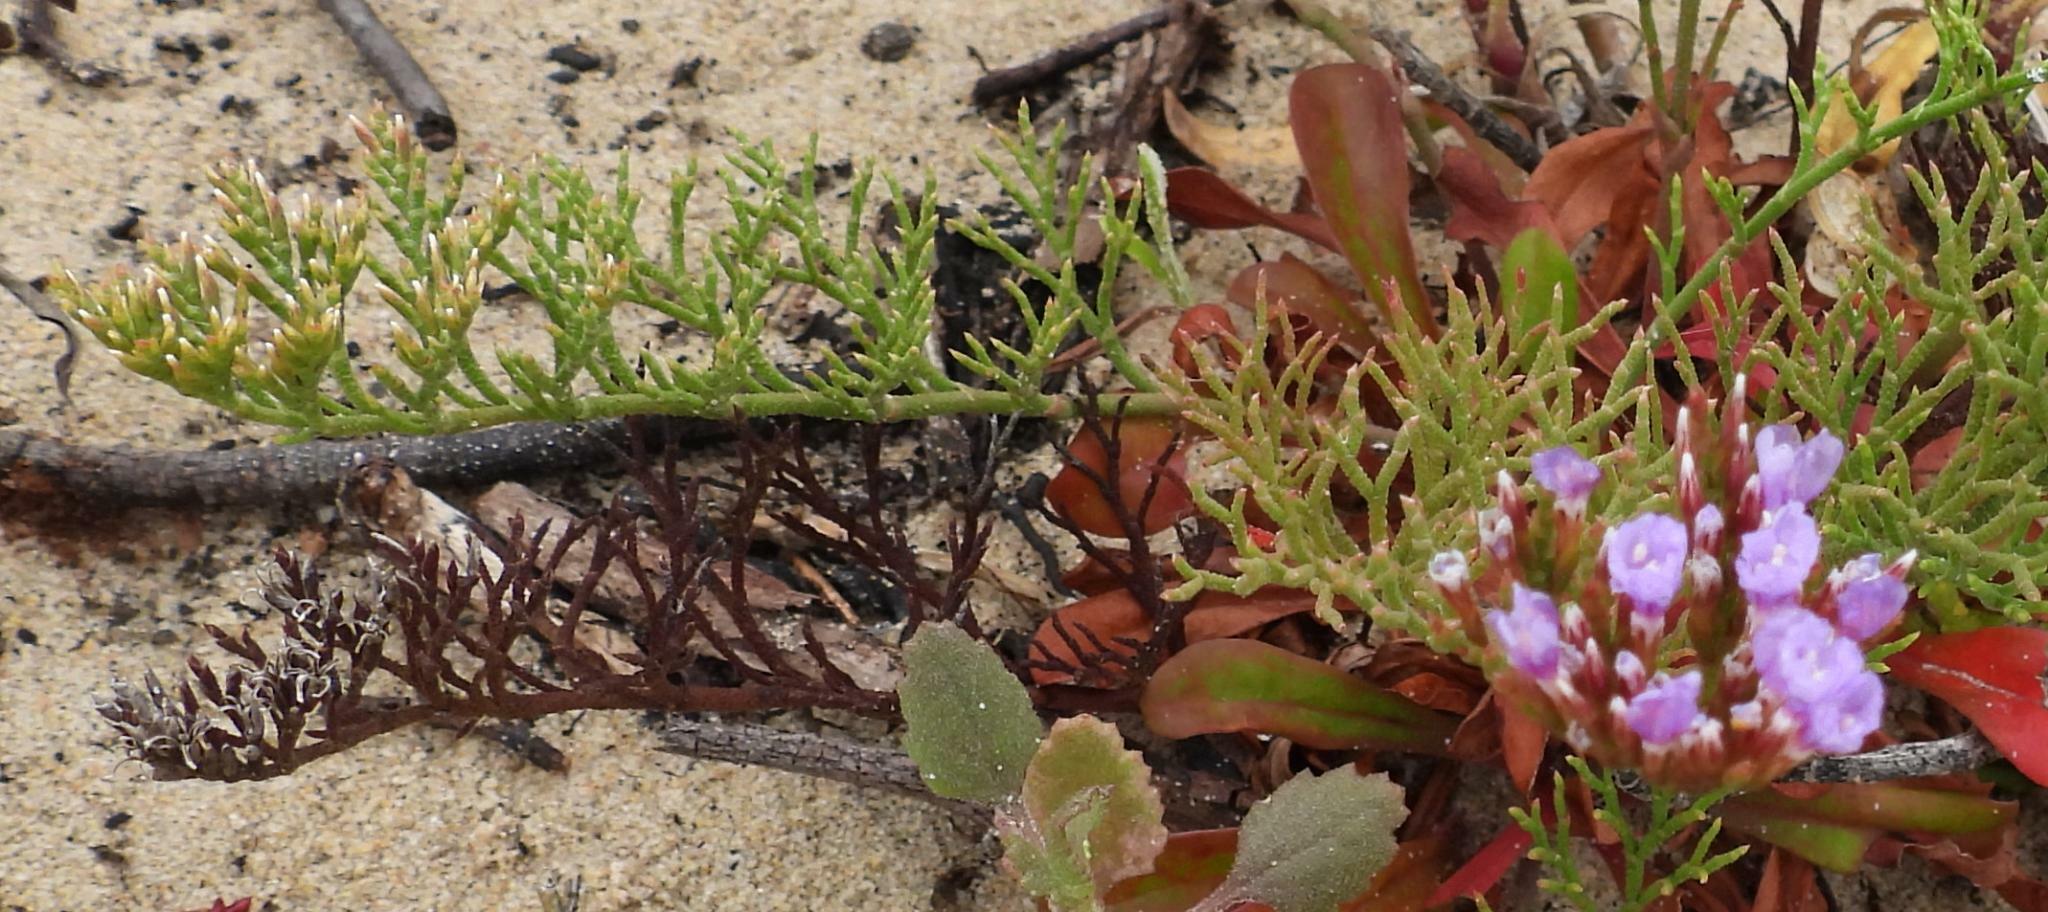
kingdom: Plantae
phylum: Tracheophyta
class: Magnoliopsida
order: Caryophyllales
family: Plumbaginaceae
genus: Limonium
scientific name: Limonium scabrum
